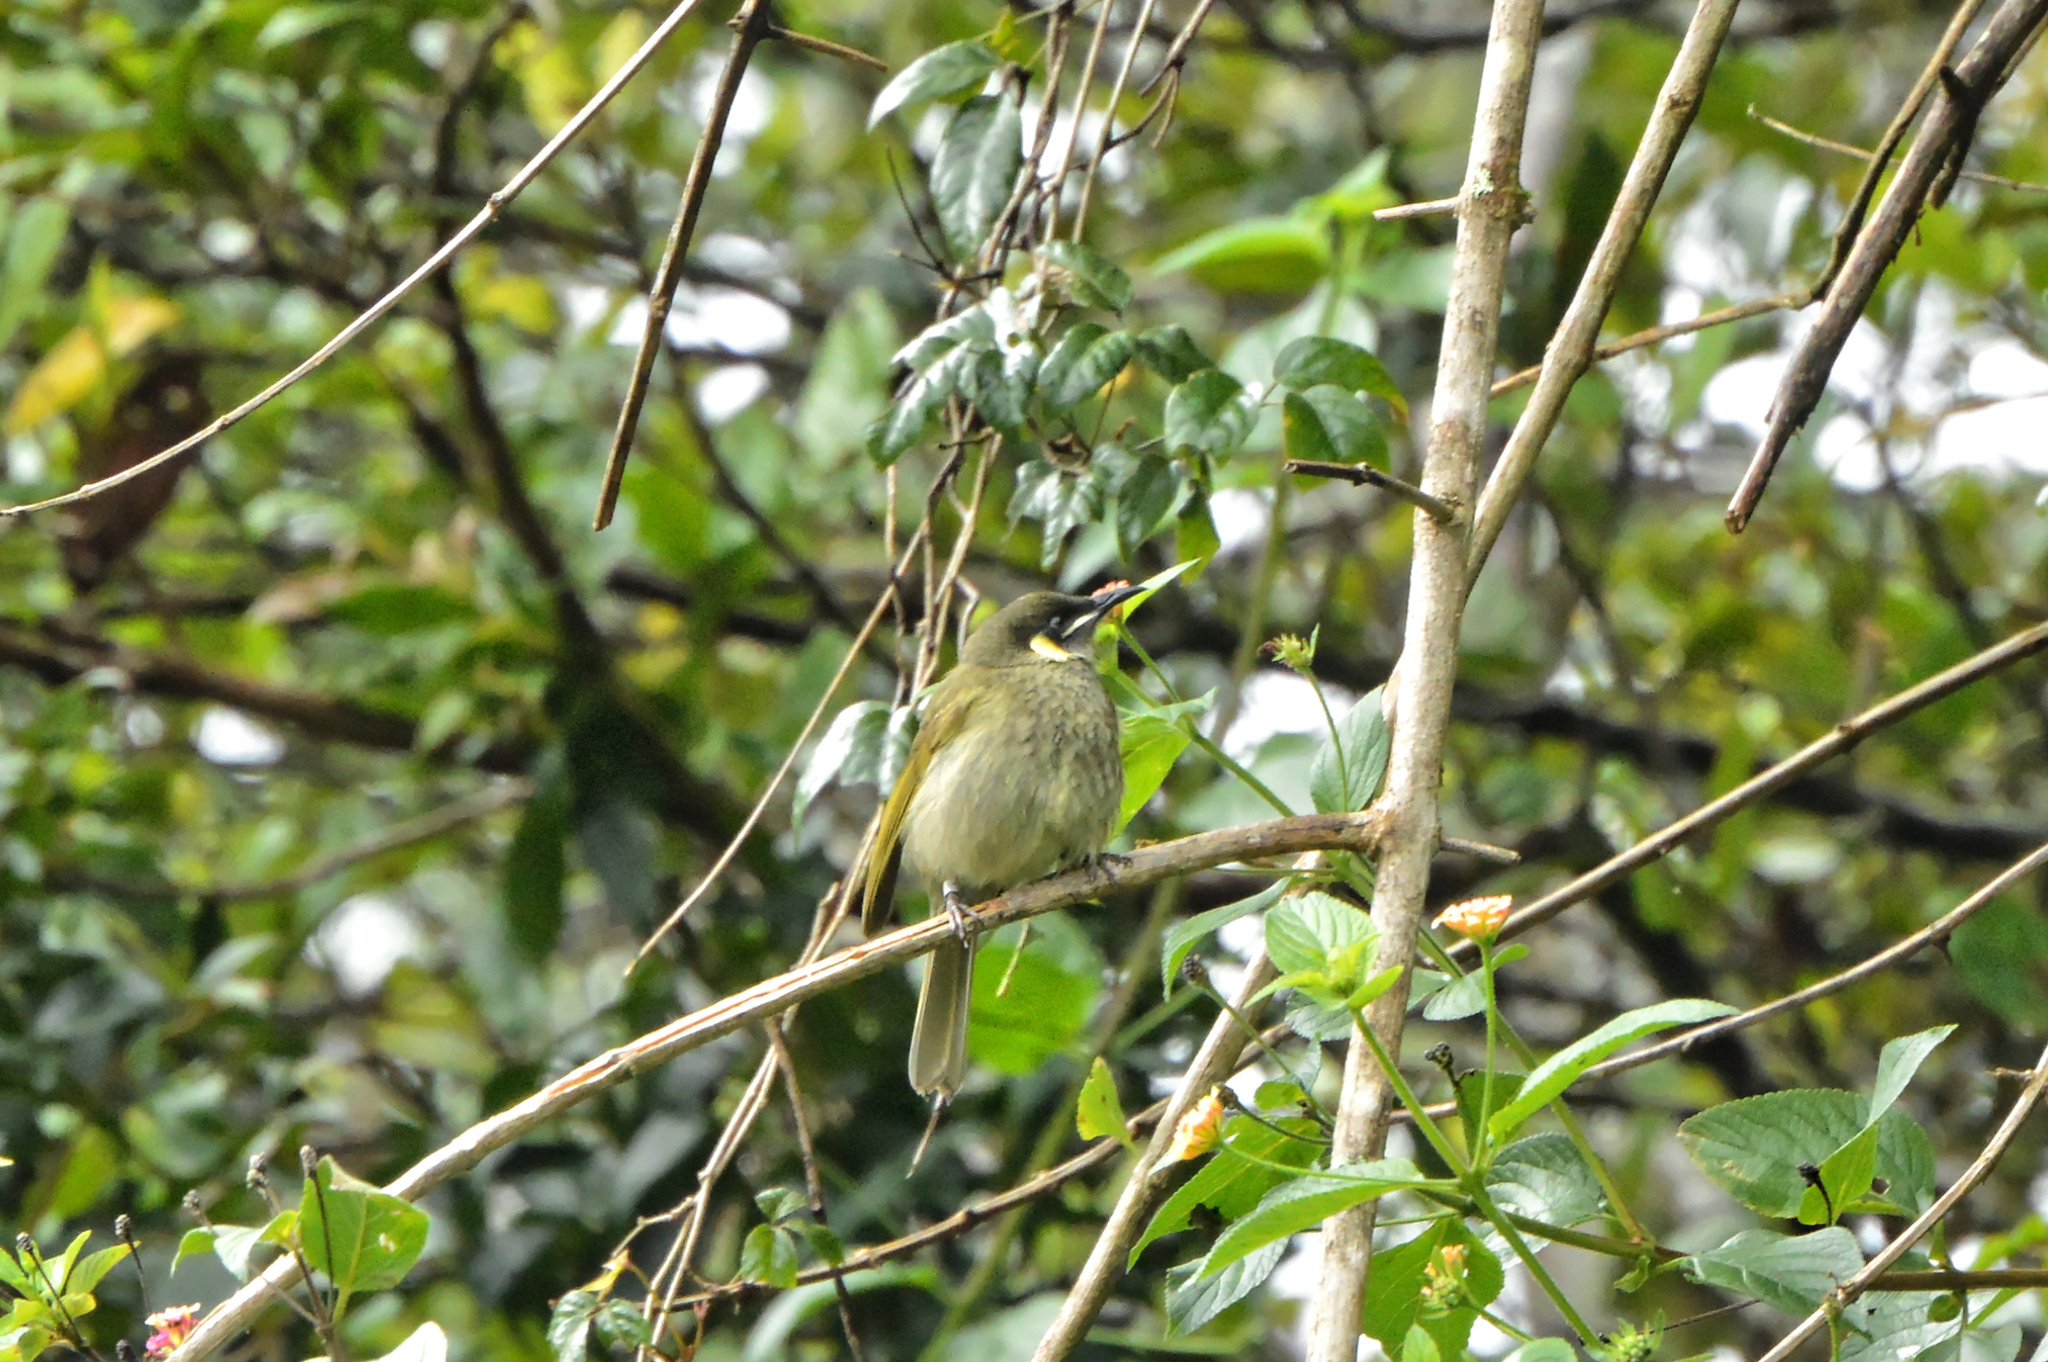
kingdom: Animalia
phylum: Chordata
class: Aves
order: Passeriformes
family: Meliphagidae
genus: Meliphaga
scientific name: Meliphaga lewinii
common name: Lewin's honeyeater
